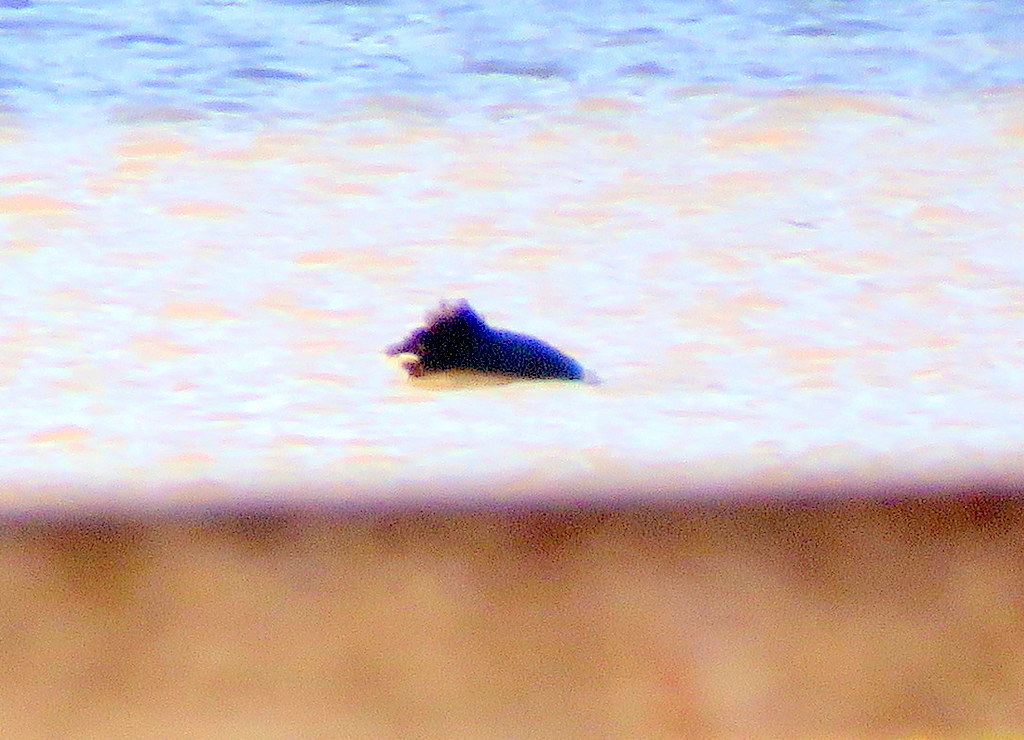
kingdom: Animalia
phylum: Chordata
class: Aves
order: Anseriformes
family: Anatidae
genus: Oxyura
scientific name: Oxyura vittata
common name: Lake duck
